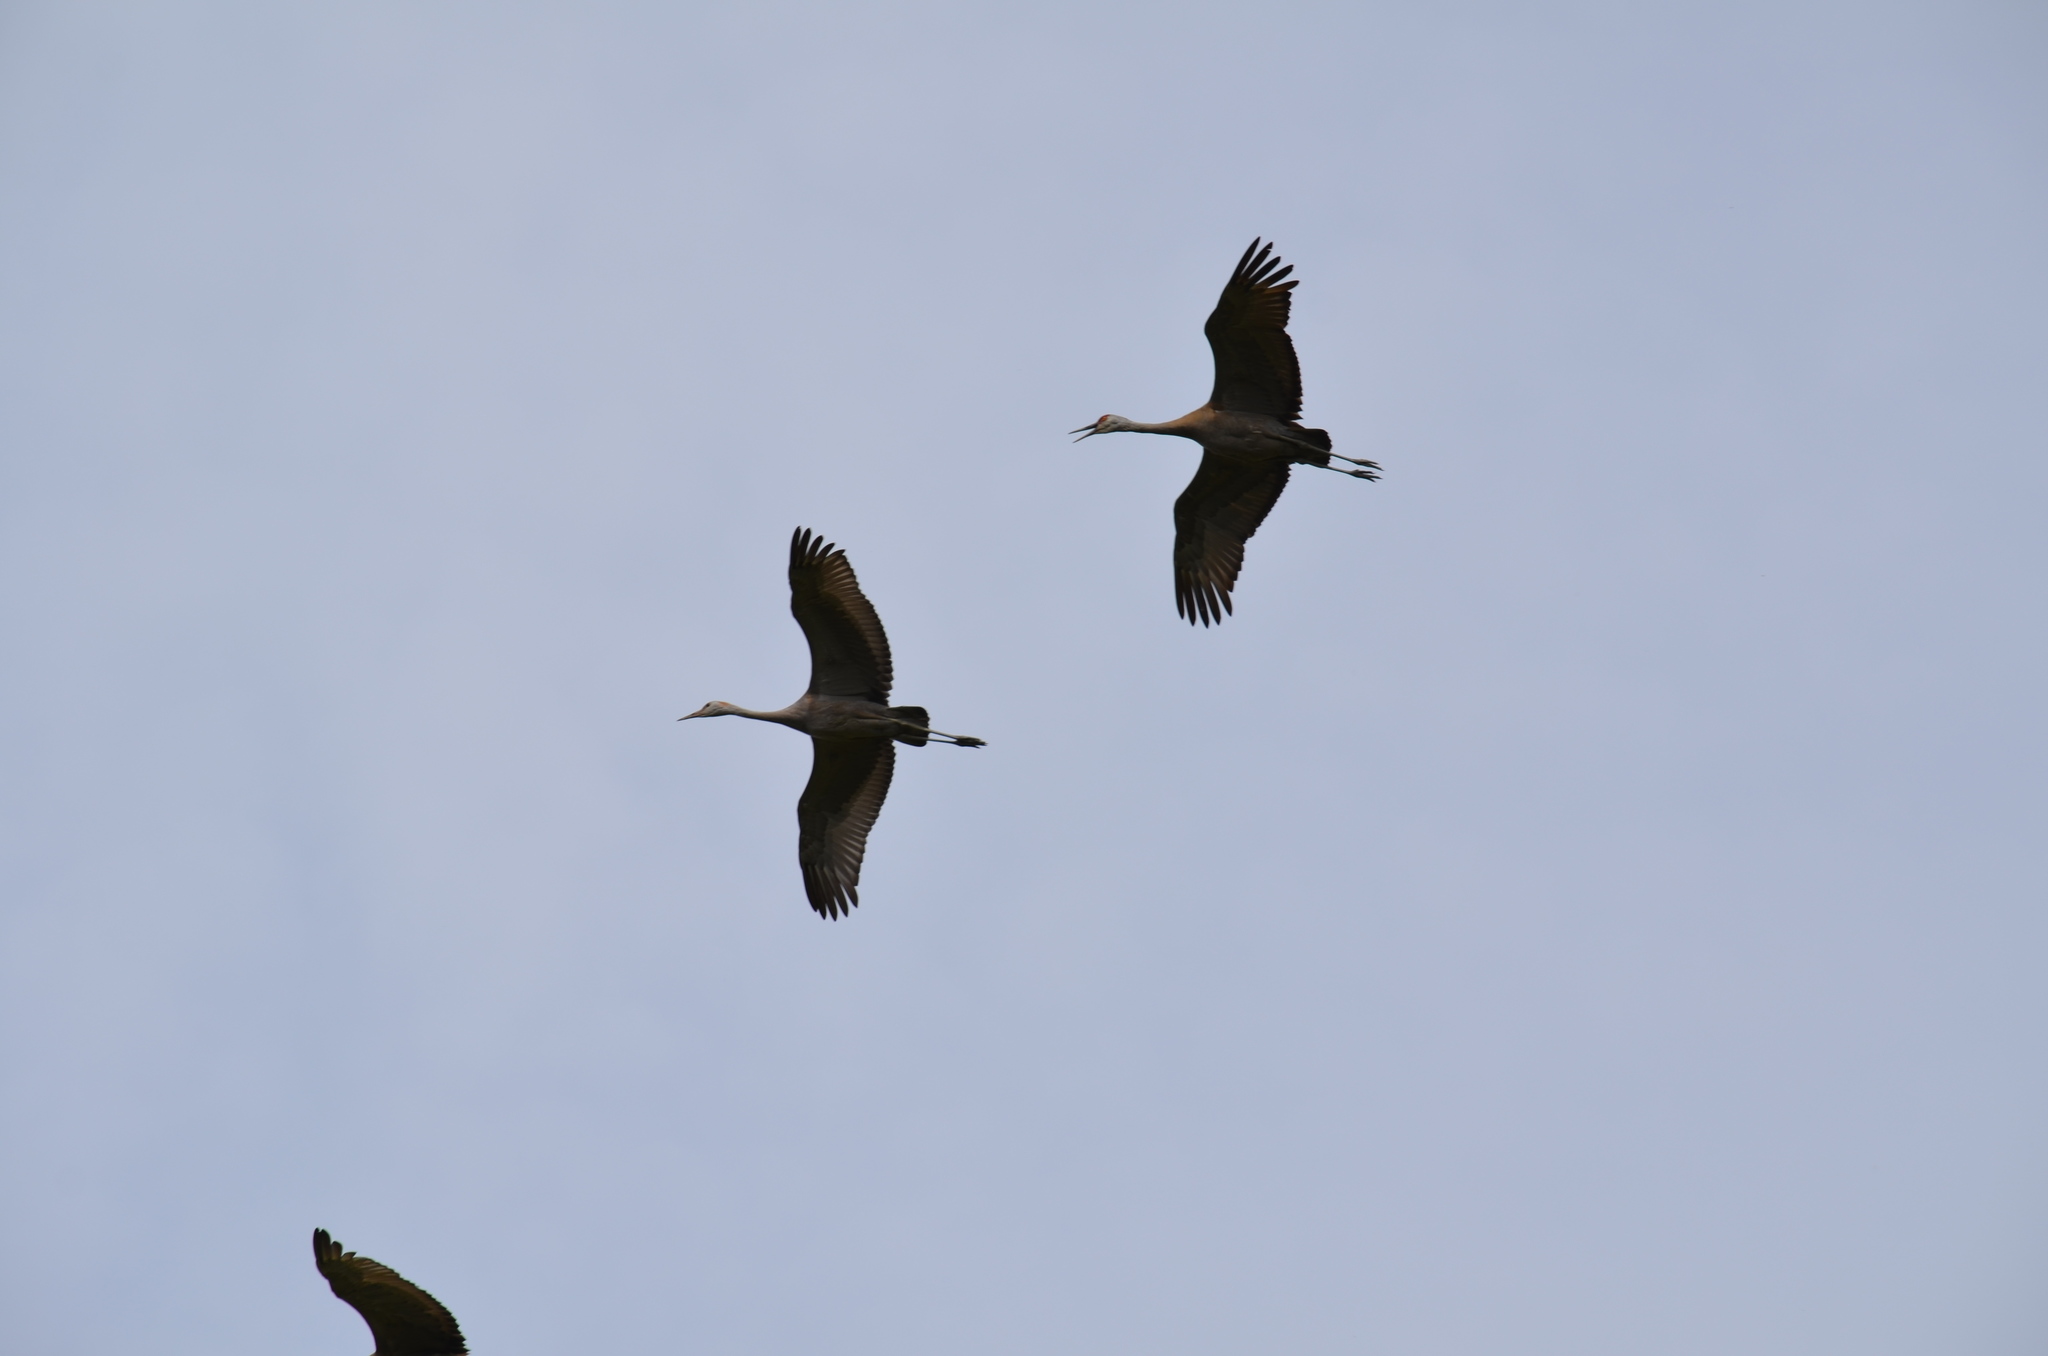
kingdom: Animalia
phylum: Chordata
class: Aves
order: Gruiformes
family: Gruidae
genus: Grus
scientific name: Grus canadensis
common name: Sandhill crane
